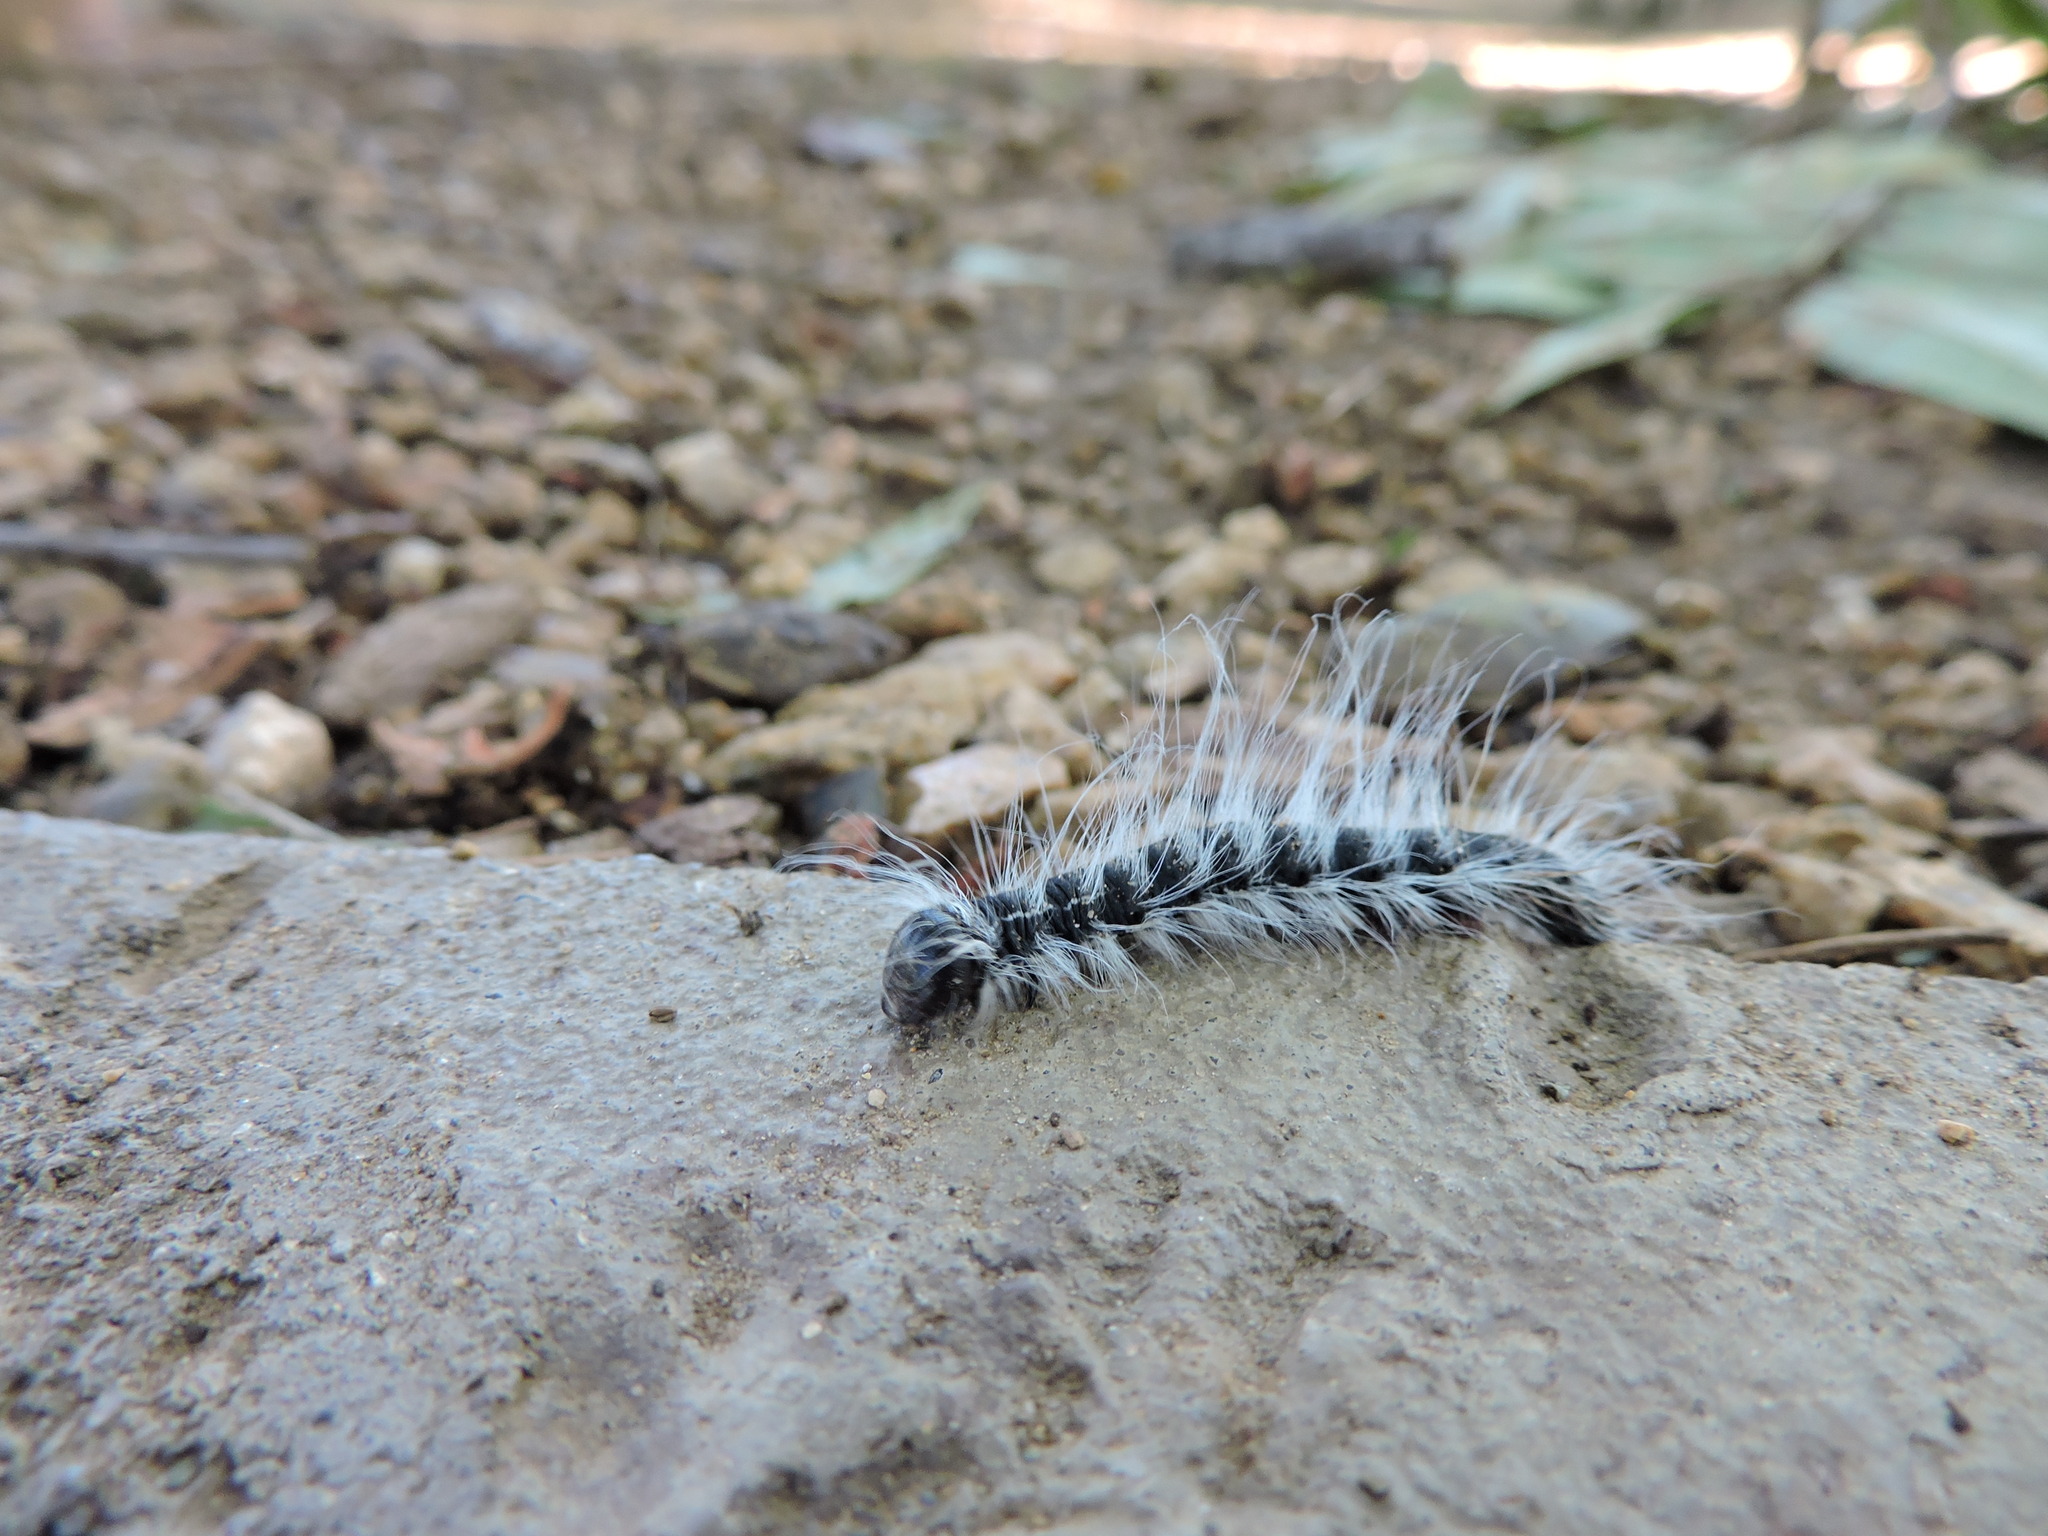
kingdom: Animalia
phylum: Arthropoda
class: Insecta
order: Lepidoptera
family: Notodontidae
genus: Datana
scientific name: Datana integerrima
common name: Walnut caterpillar
